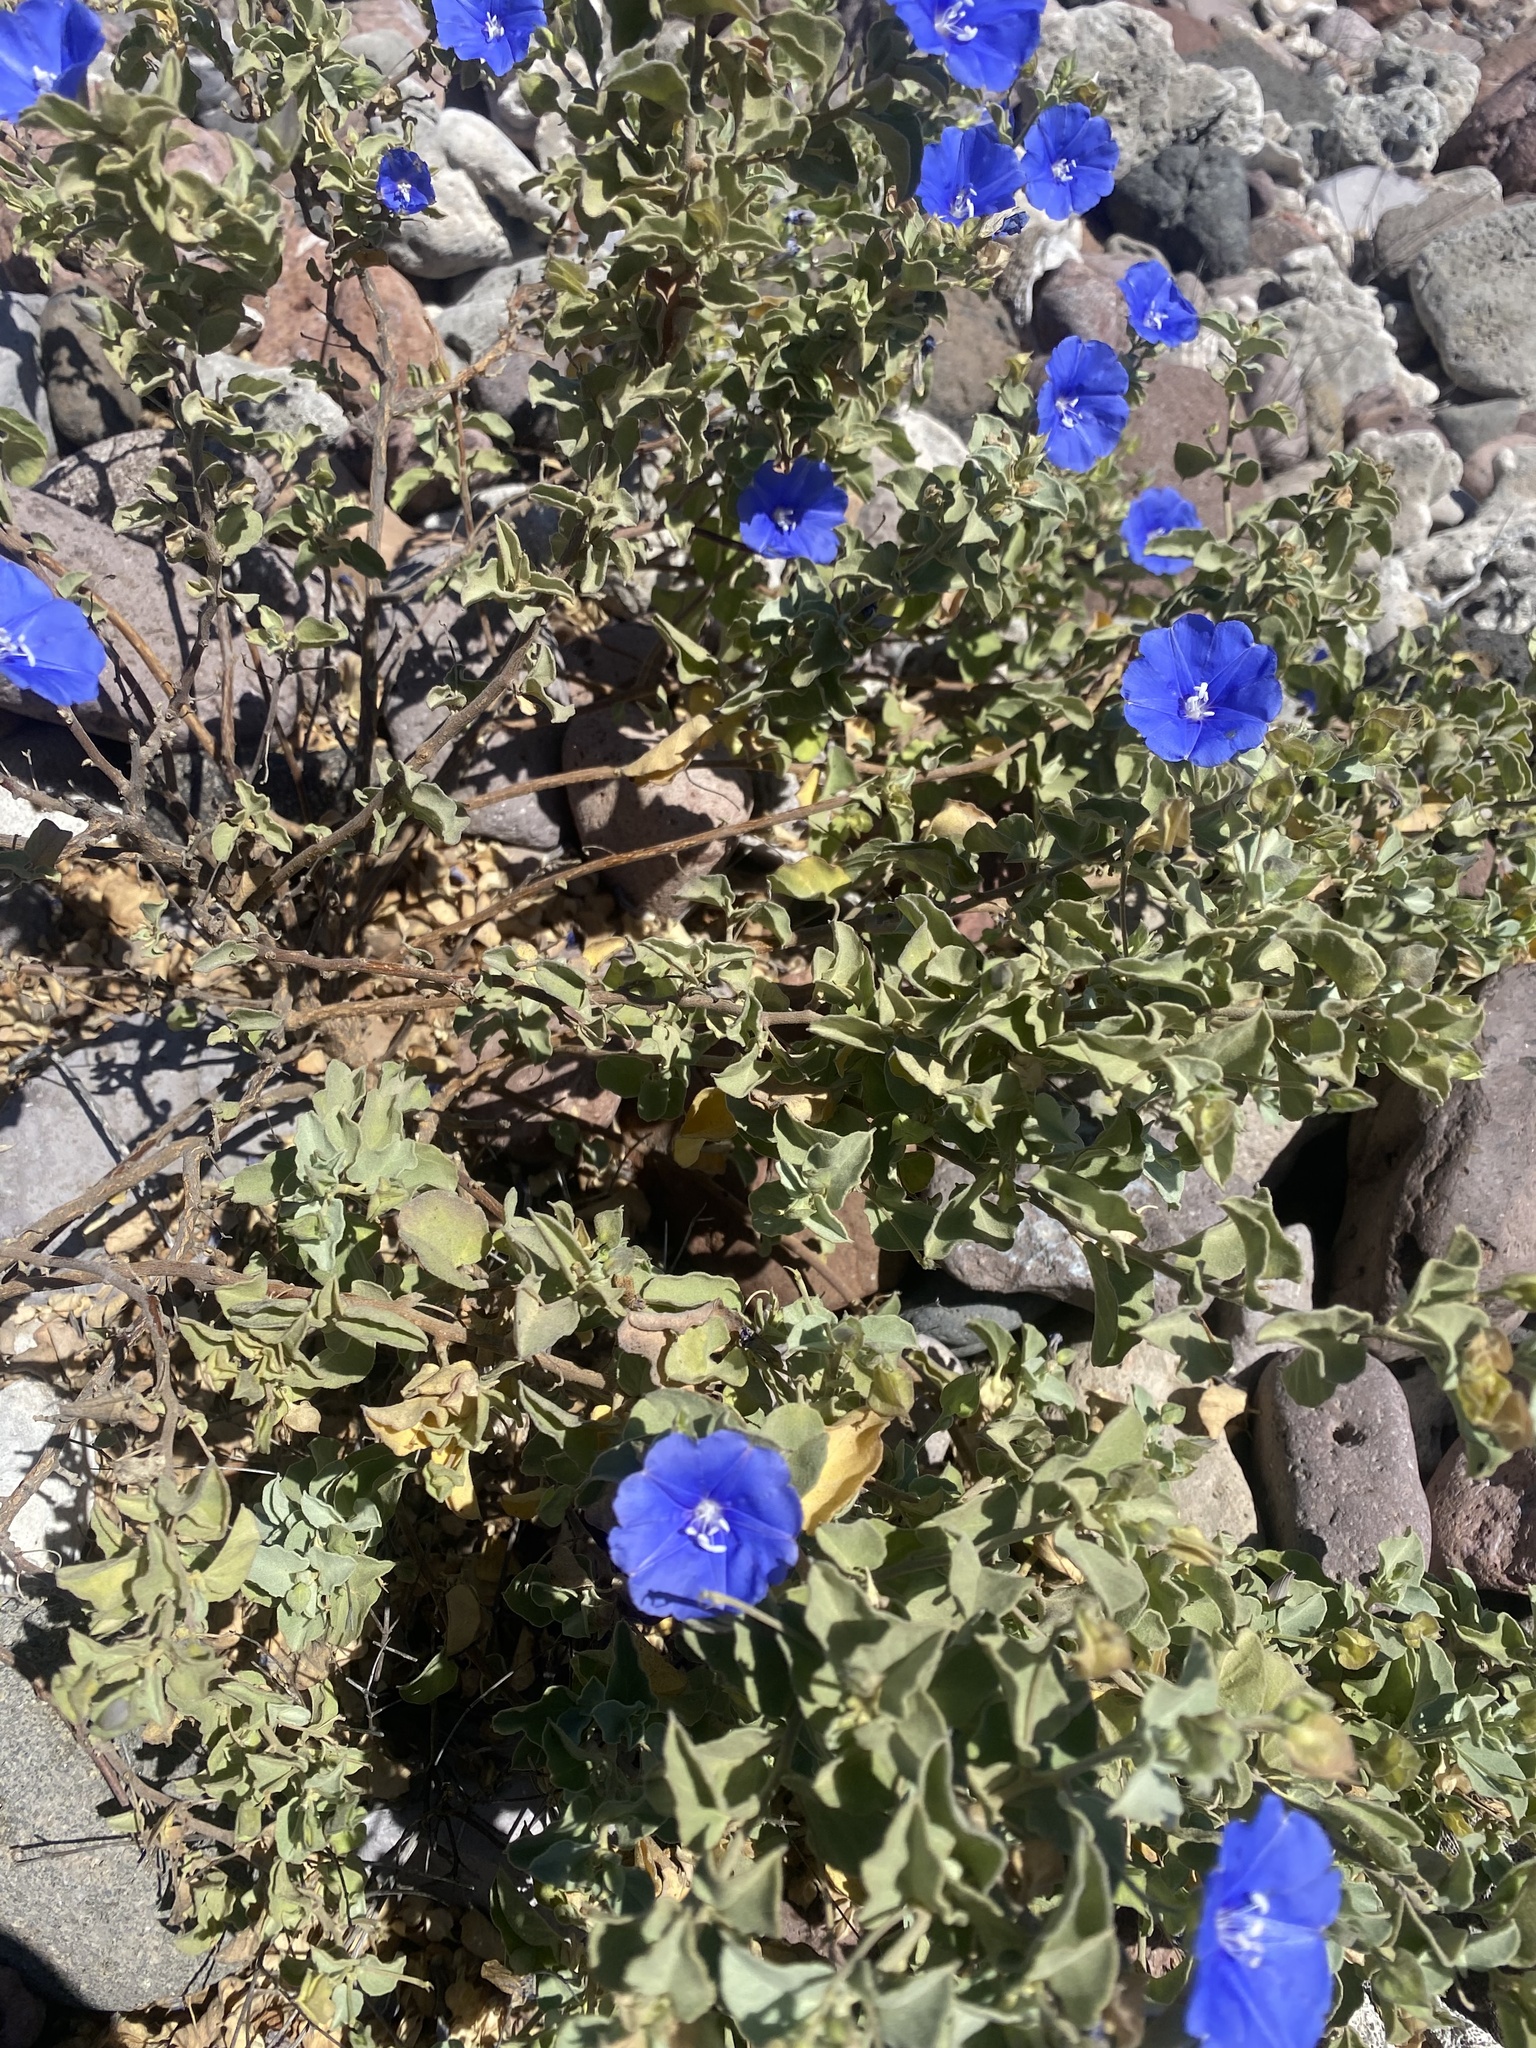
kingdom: Plantae
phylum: Tracheophyta
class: Magnoliopsida
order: Solanales
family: Convolvulaceae
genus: Jacquemontia
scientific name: Jacquemontia abutiloides
